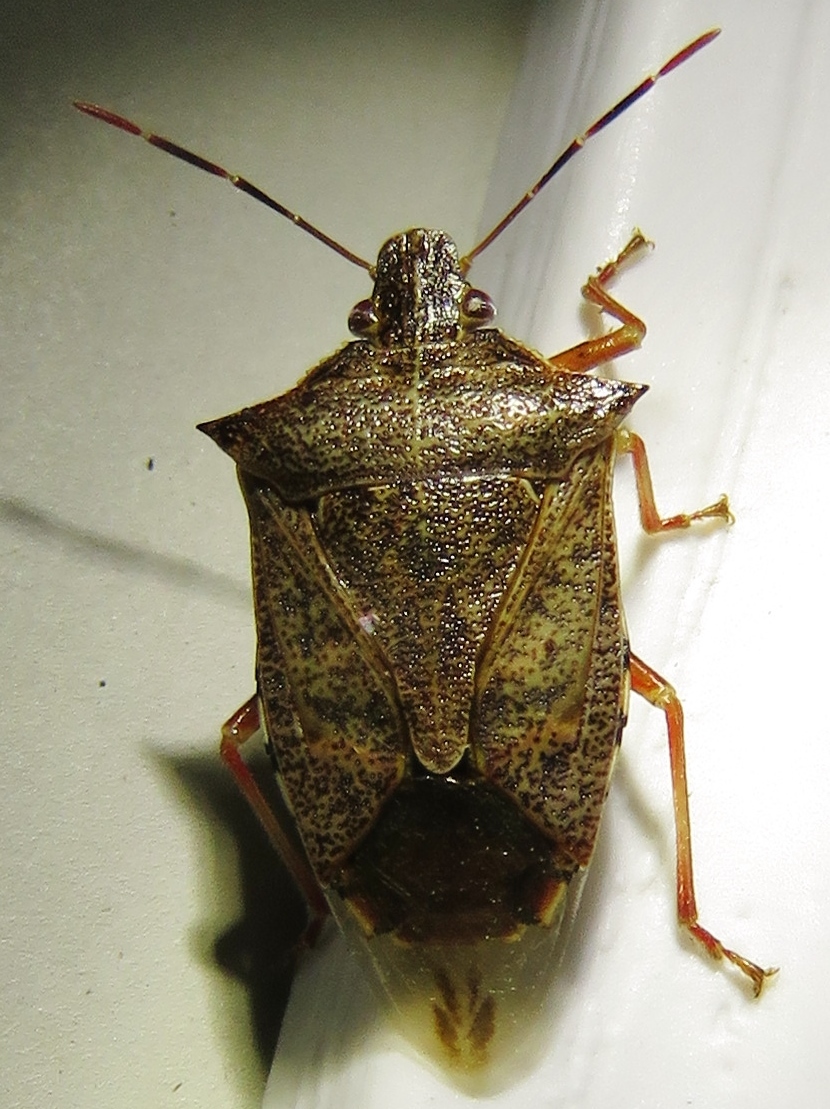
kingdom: Animalia
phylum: Arthropoda
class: Insecta
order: Hemiptera
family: Pentatomidae
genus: Podisus
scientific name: Podisus maculiventris
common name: Spined soldier bug
